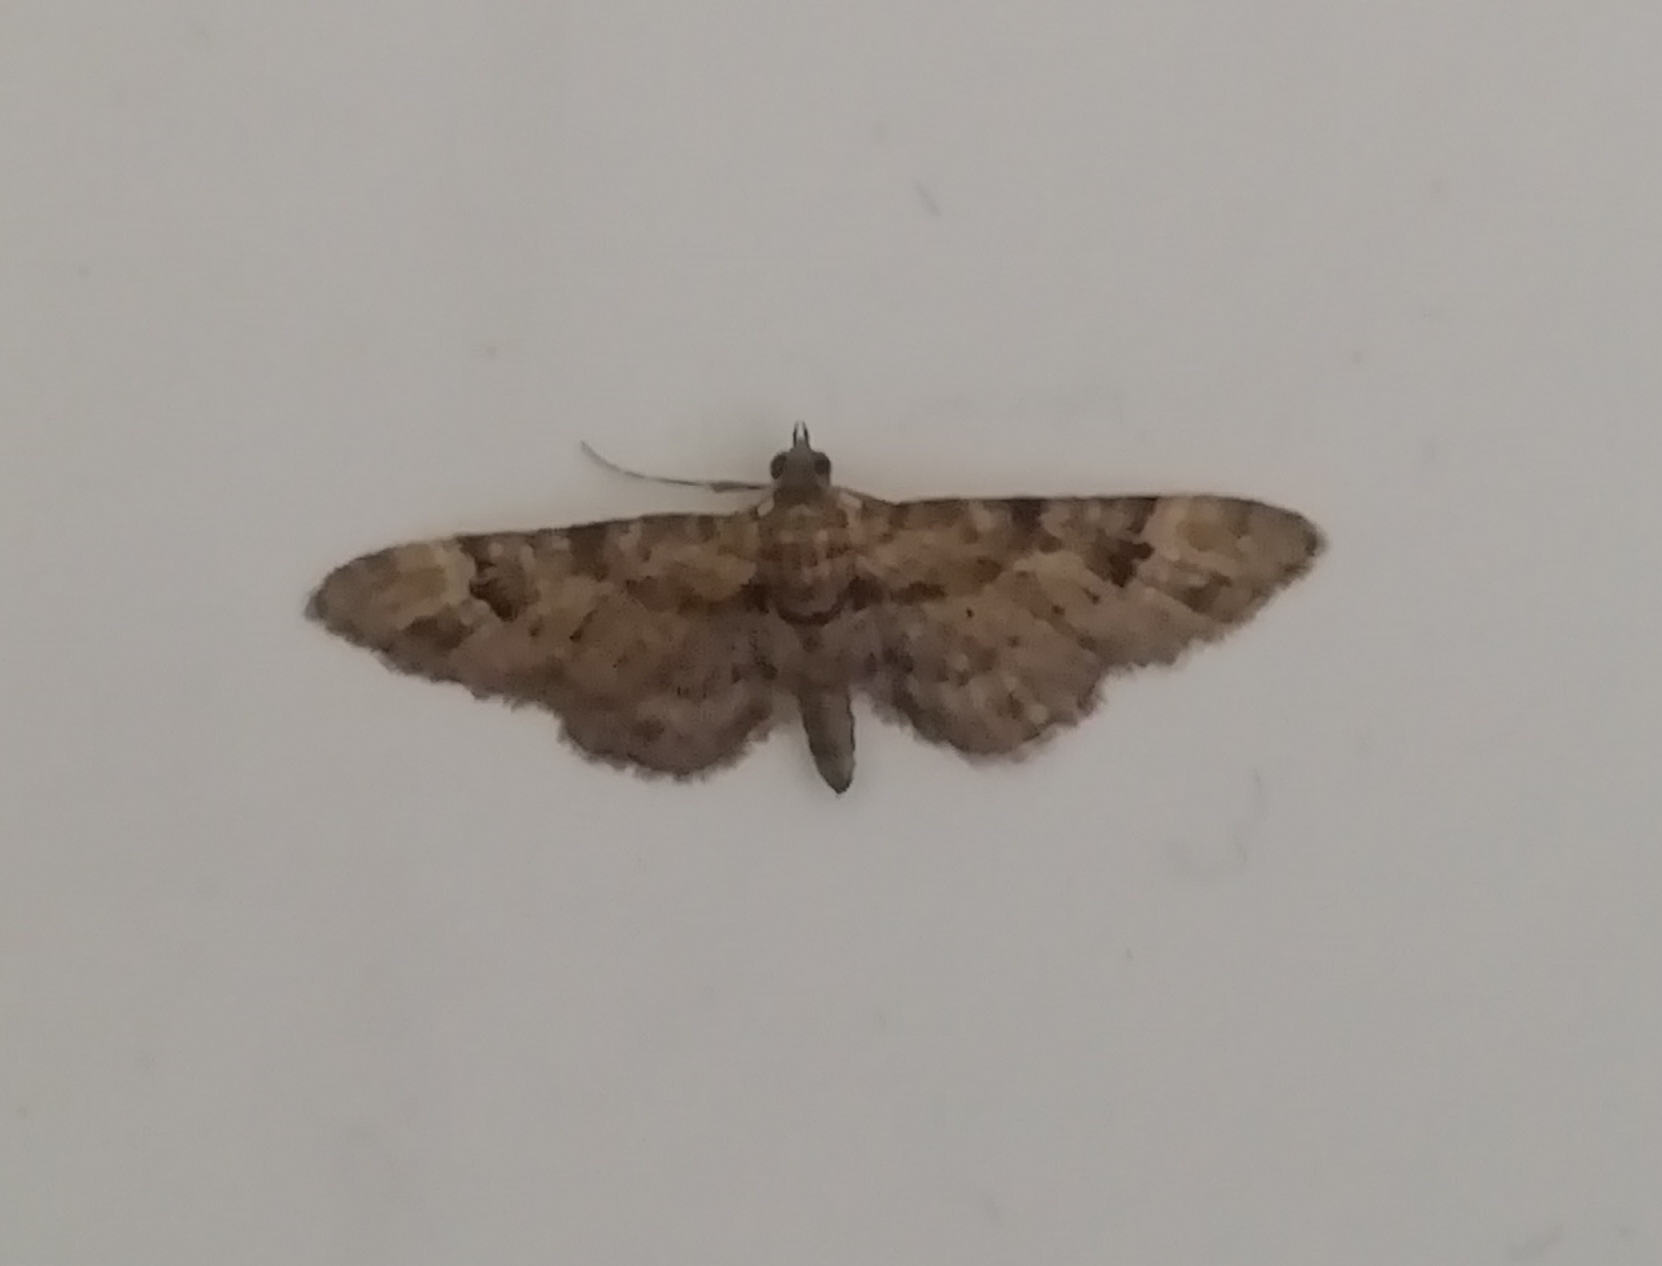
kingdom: Animalia
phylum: Arthropoda
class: Insecta
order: Lepidoptera
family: Geometridae
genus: Gymnoscelis
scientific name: Gymnoscelis rufifasciata
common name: Double-striped pug
